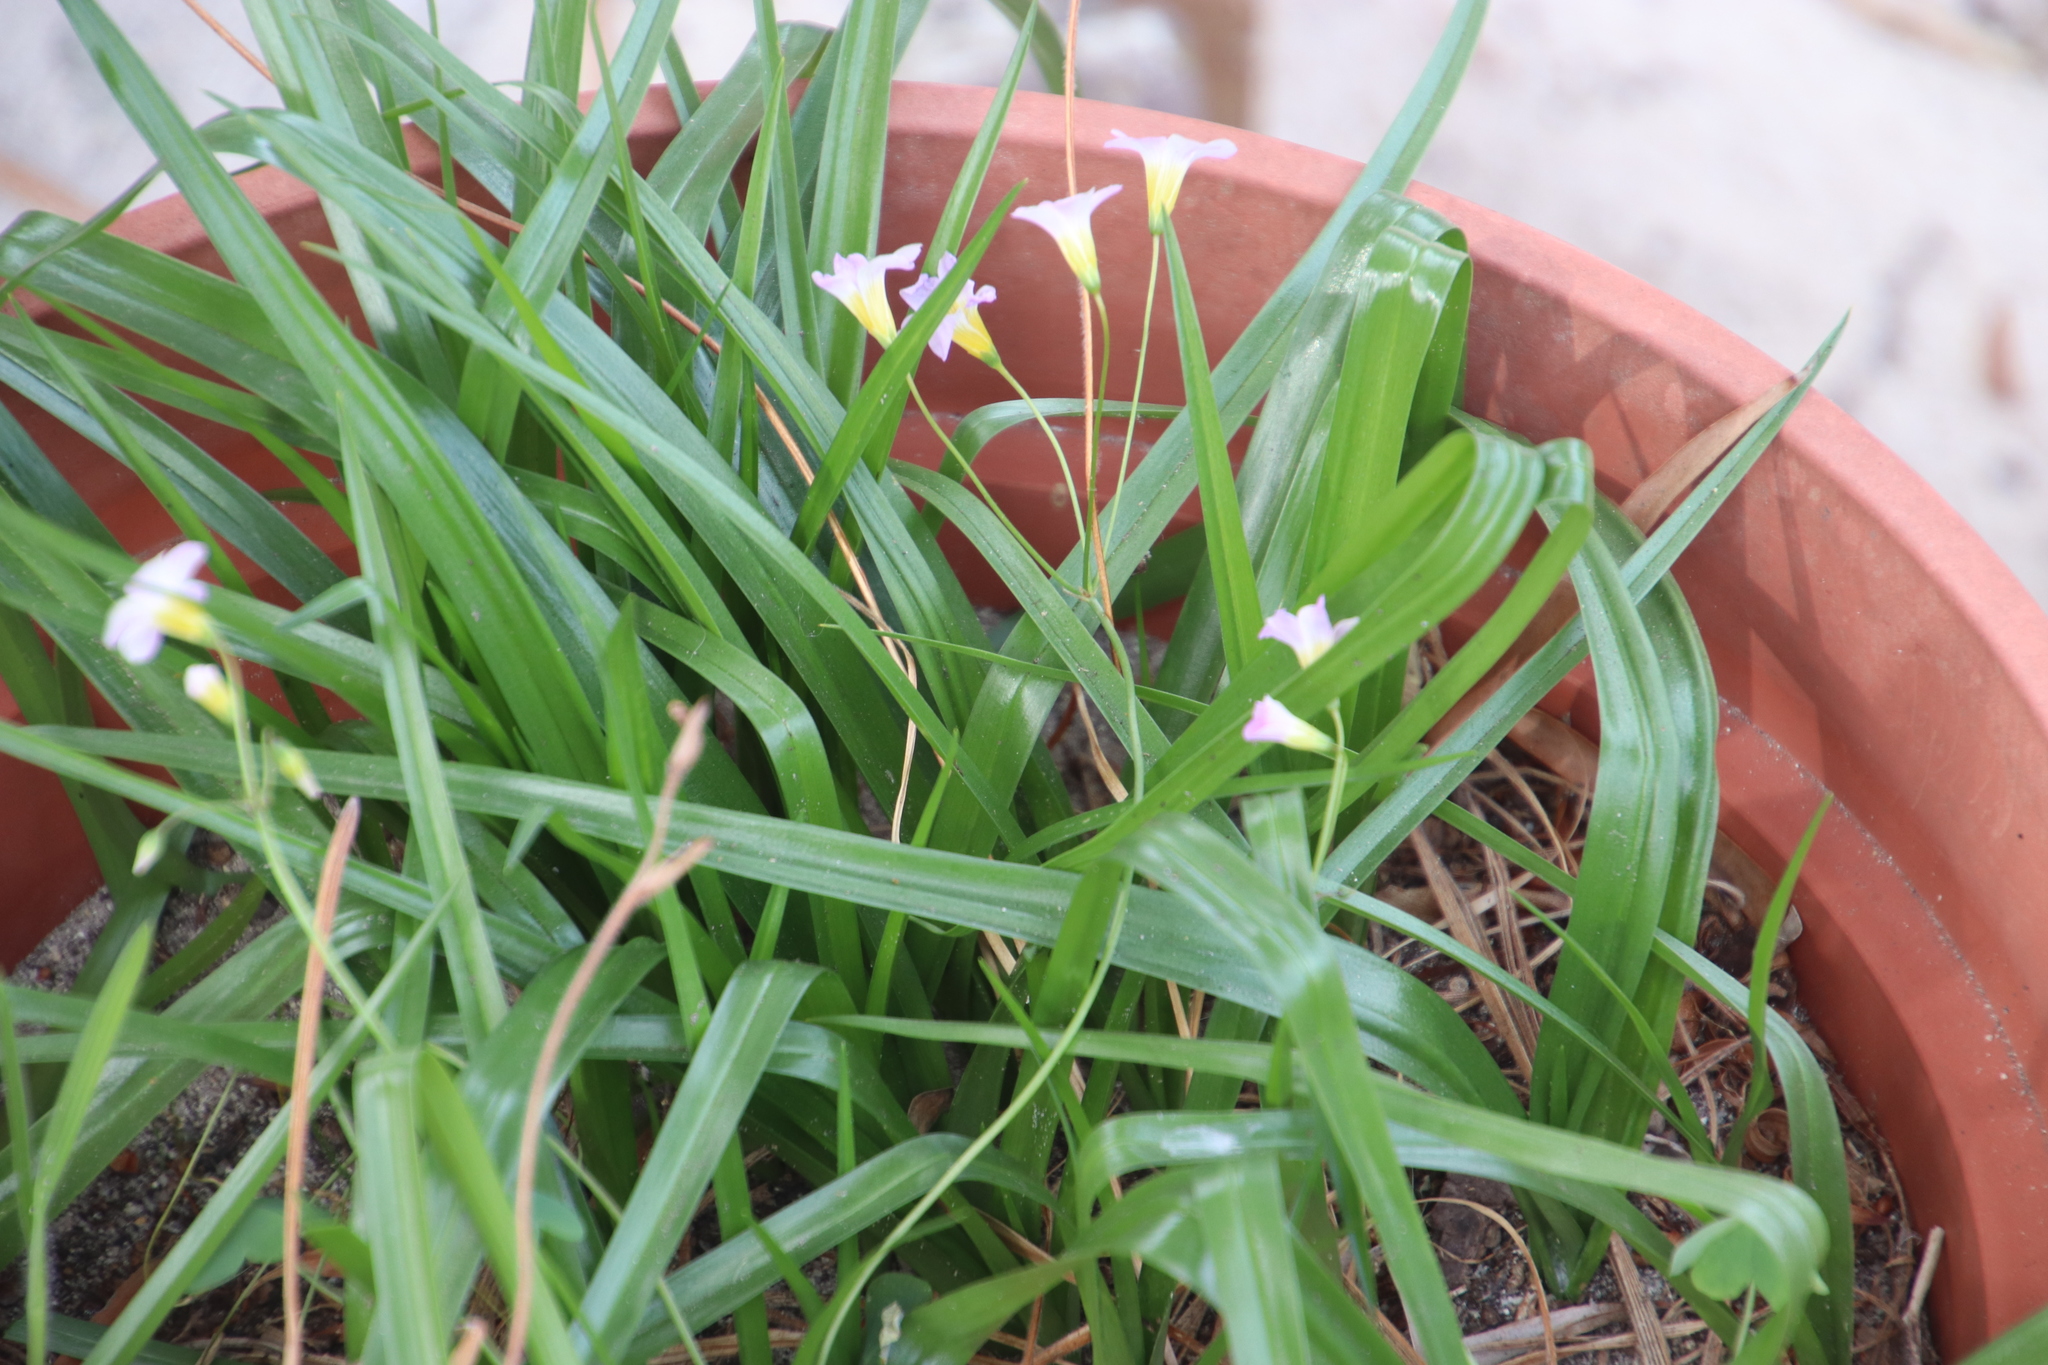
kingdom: Plantae
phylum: Tracheophyta
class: Magnoliopsida
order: Oxalidales
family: Oxalidaceae
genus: Oxalis
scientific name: Oxalis caprina
